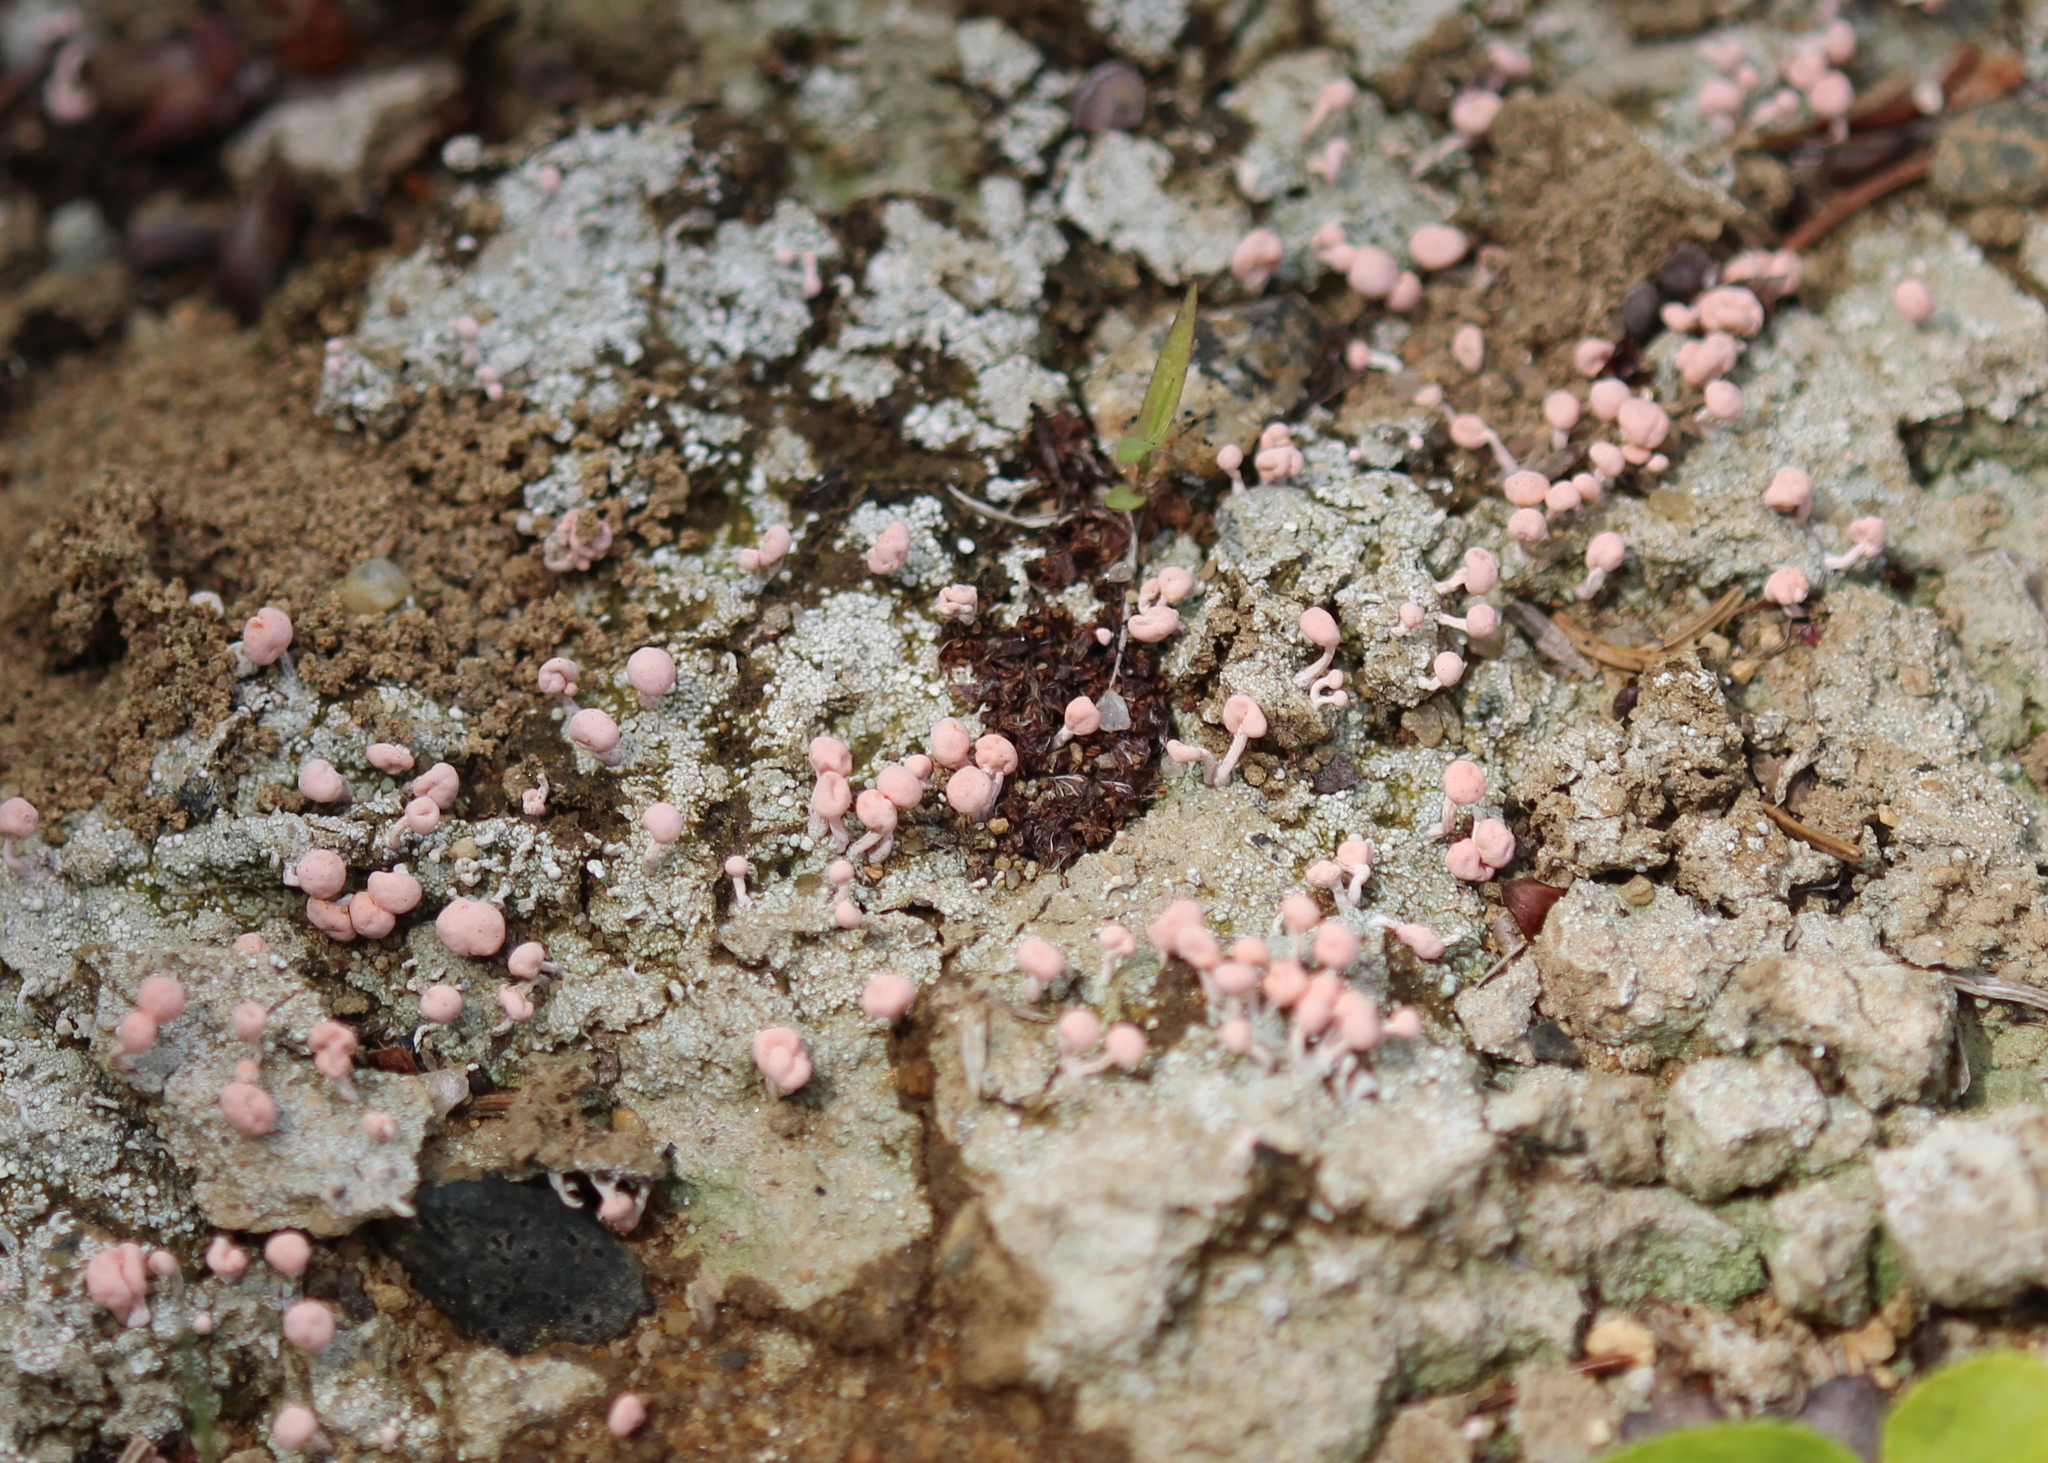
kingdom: Fungi
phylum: Ascomycota
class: Lecanoromycetes
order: Pertusariales
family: Icmadophilaceae
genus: Dibaeis
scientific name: Dibaeis baeomyces
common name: Pink earth lichen
